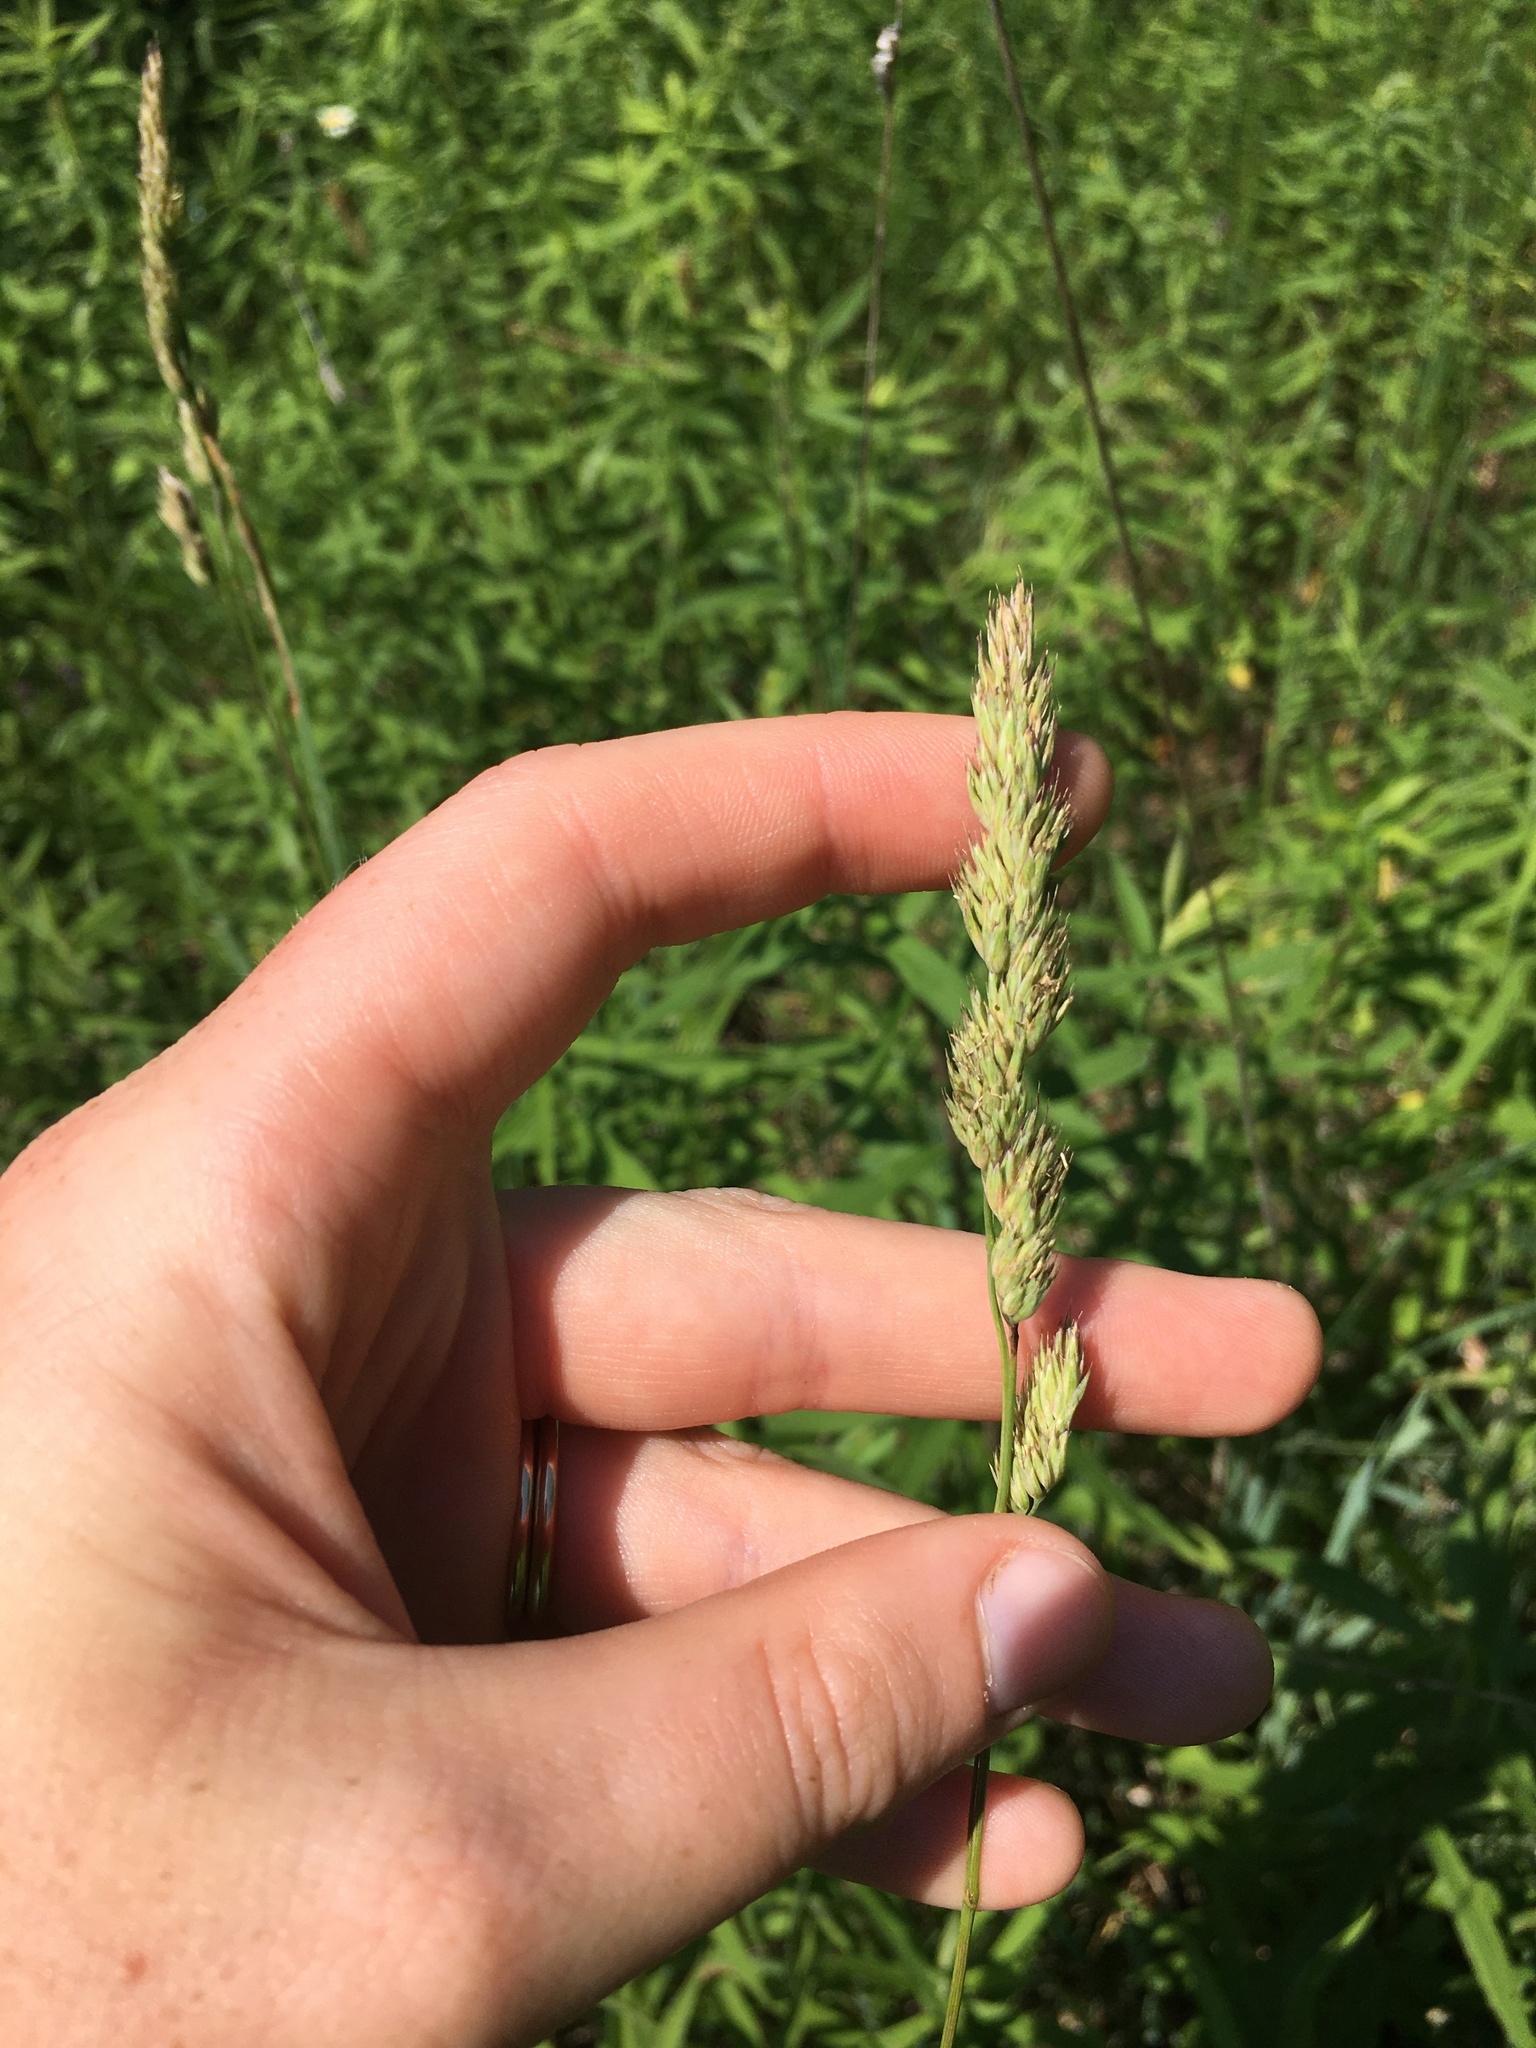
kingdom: Plantae
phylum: Tracheophyta
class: Liliopsida
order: Poales
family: Poaceae
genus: Dactylis
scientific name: Dactylis glomerata
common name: Orchardgrass
